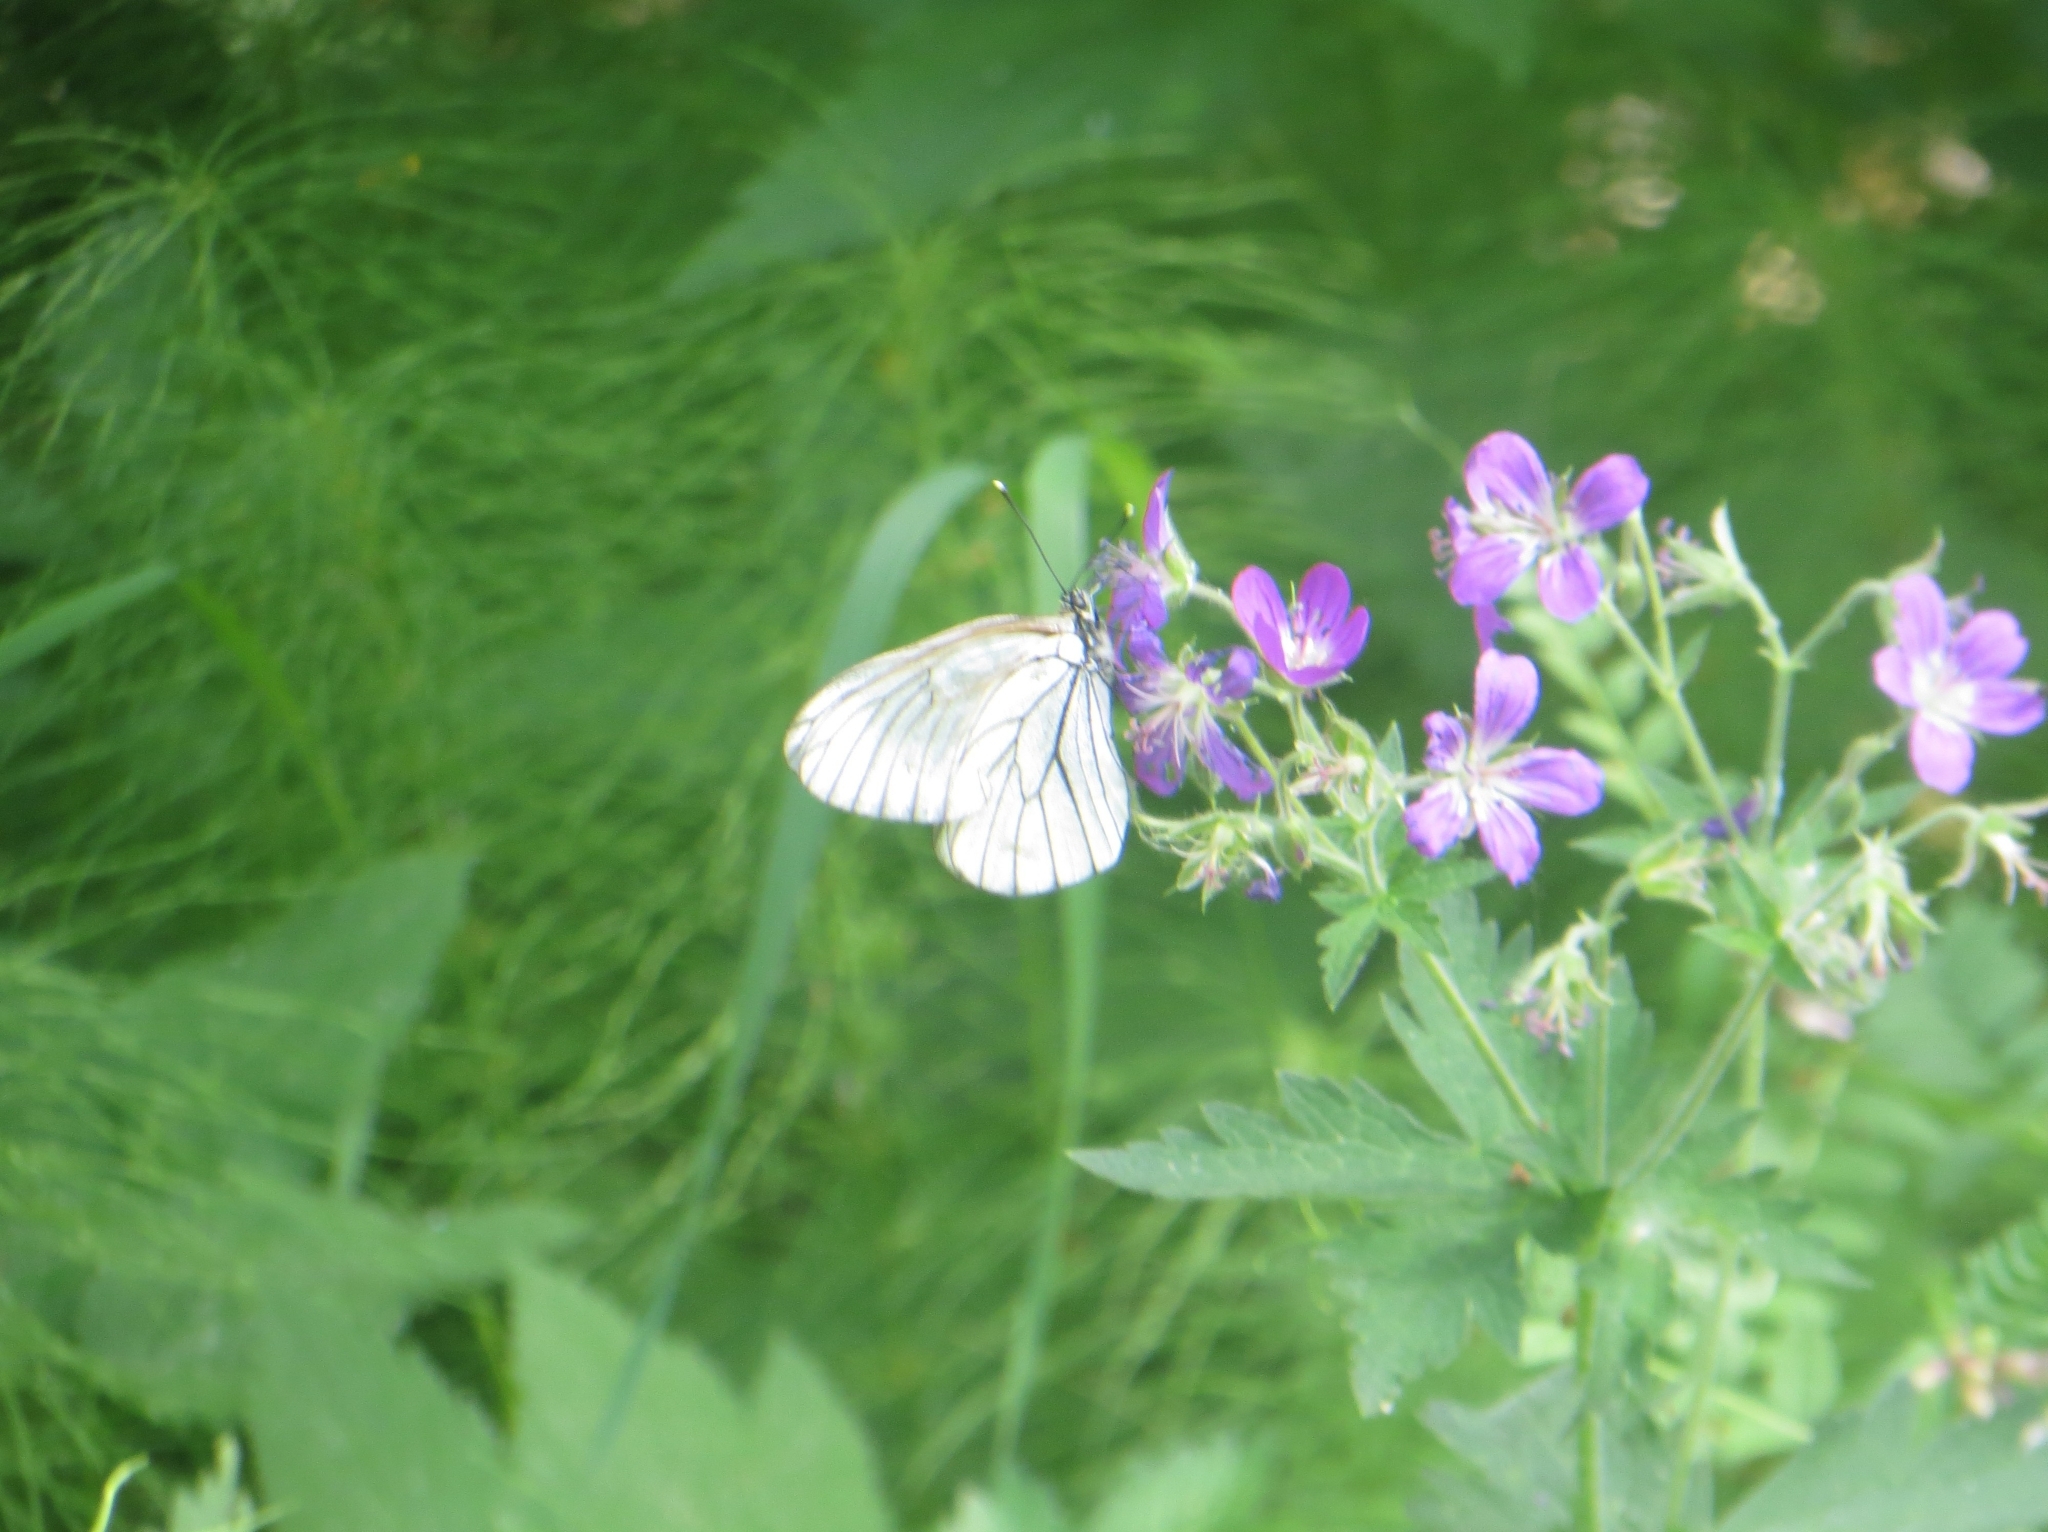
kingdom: Animalia
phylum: Arthropoda
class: Insecta
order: Lepidoptera
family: Pieridae
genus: Aporia
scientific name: Aporia crataegi
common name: Black-veined white
